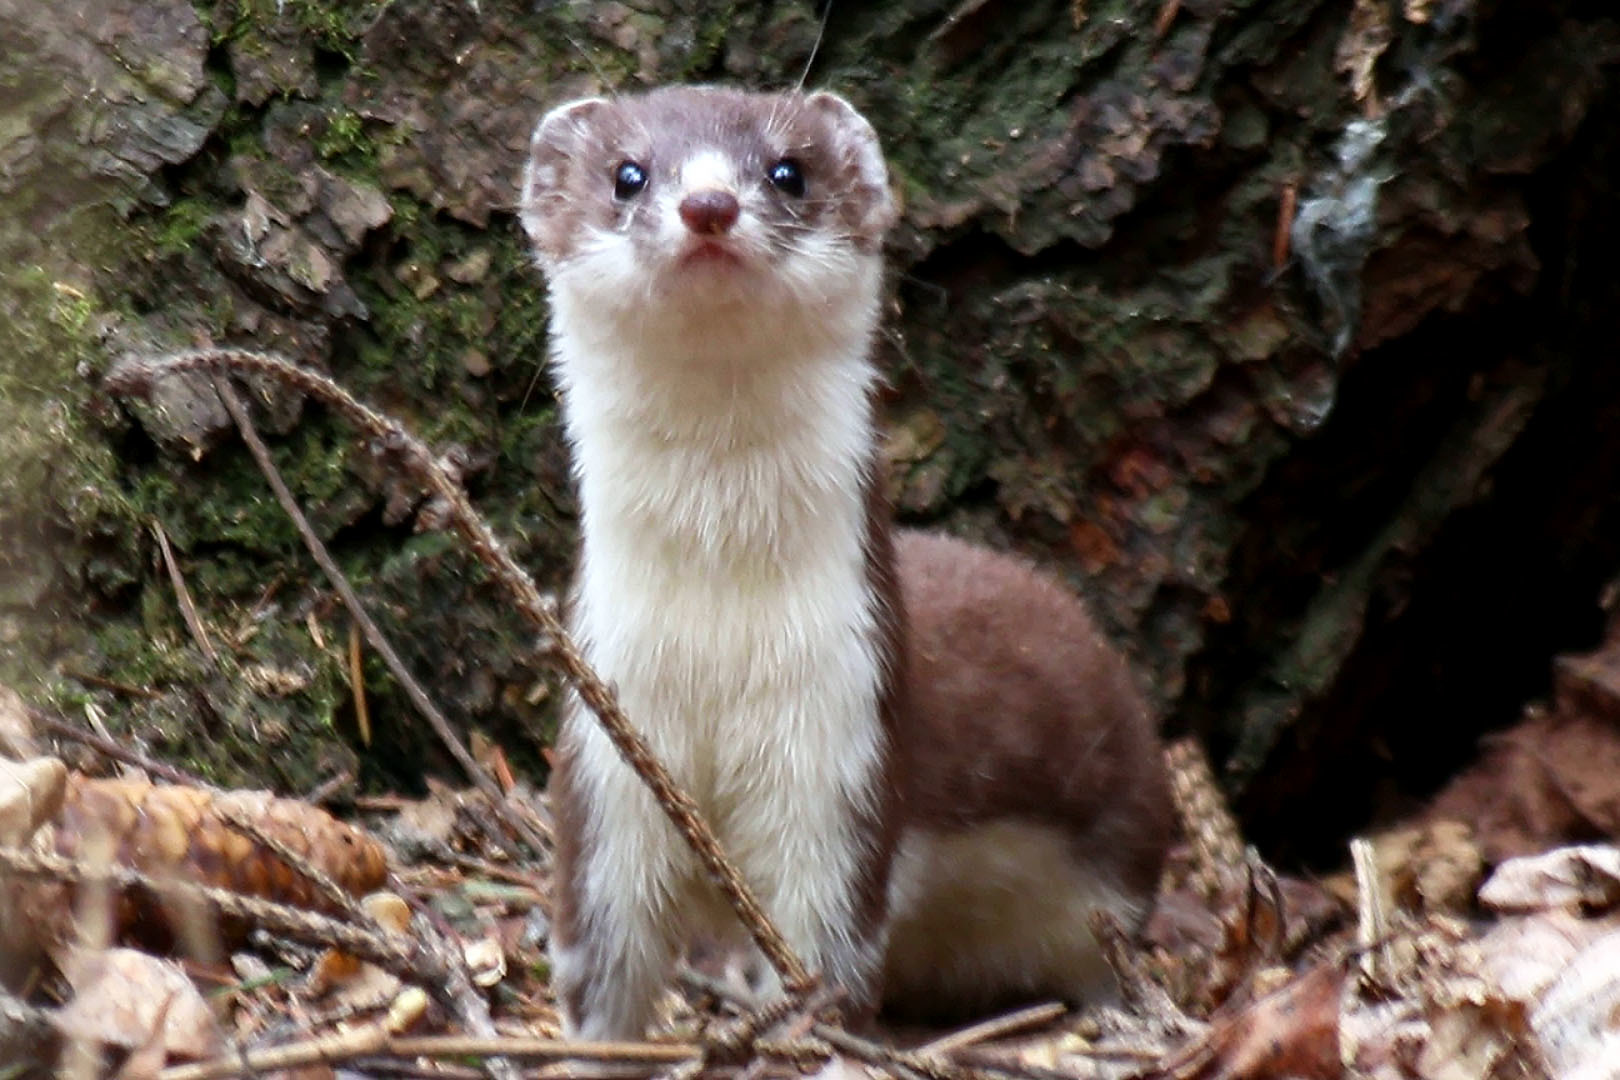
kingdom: Animalia
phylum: Chordata
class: Mammalia
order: Carnivora
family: Mustelidae
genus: Mustela
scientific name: Mustela nivalis
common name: Least weasel
